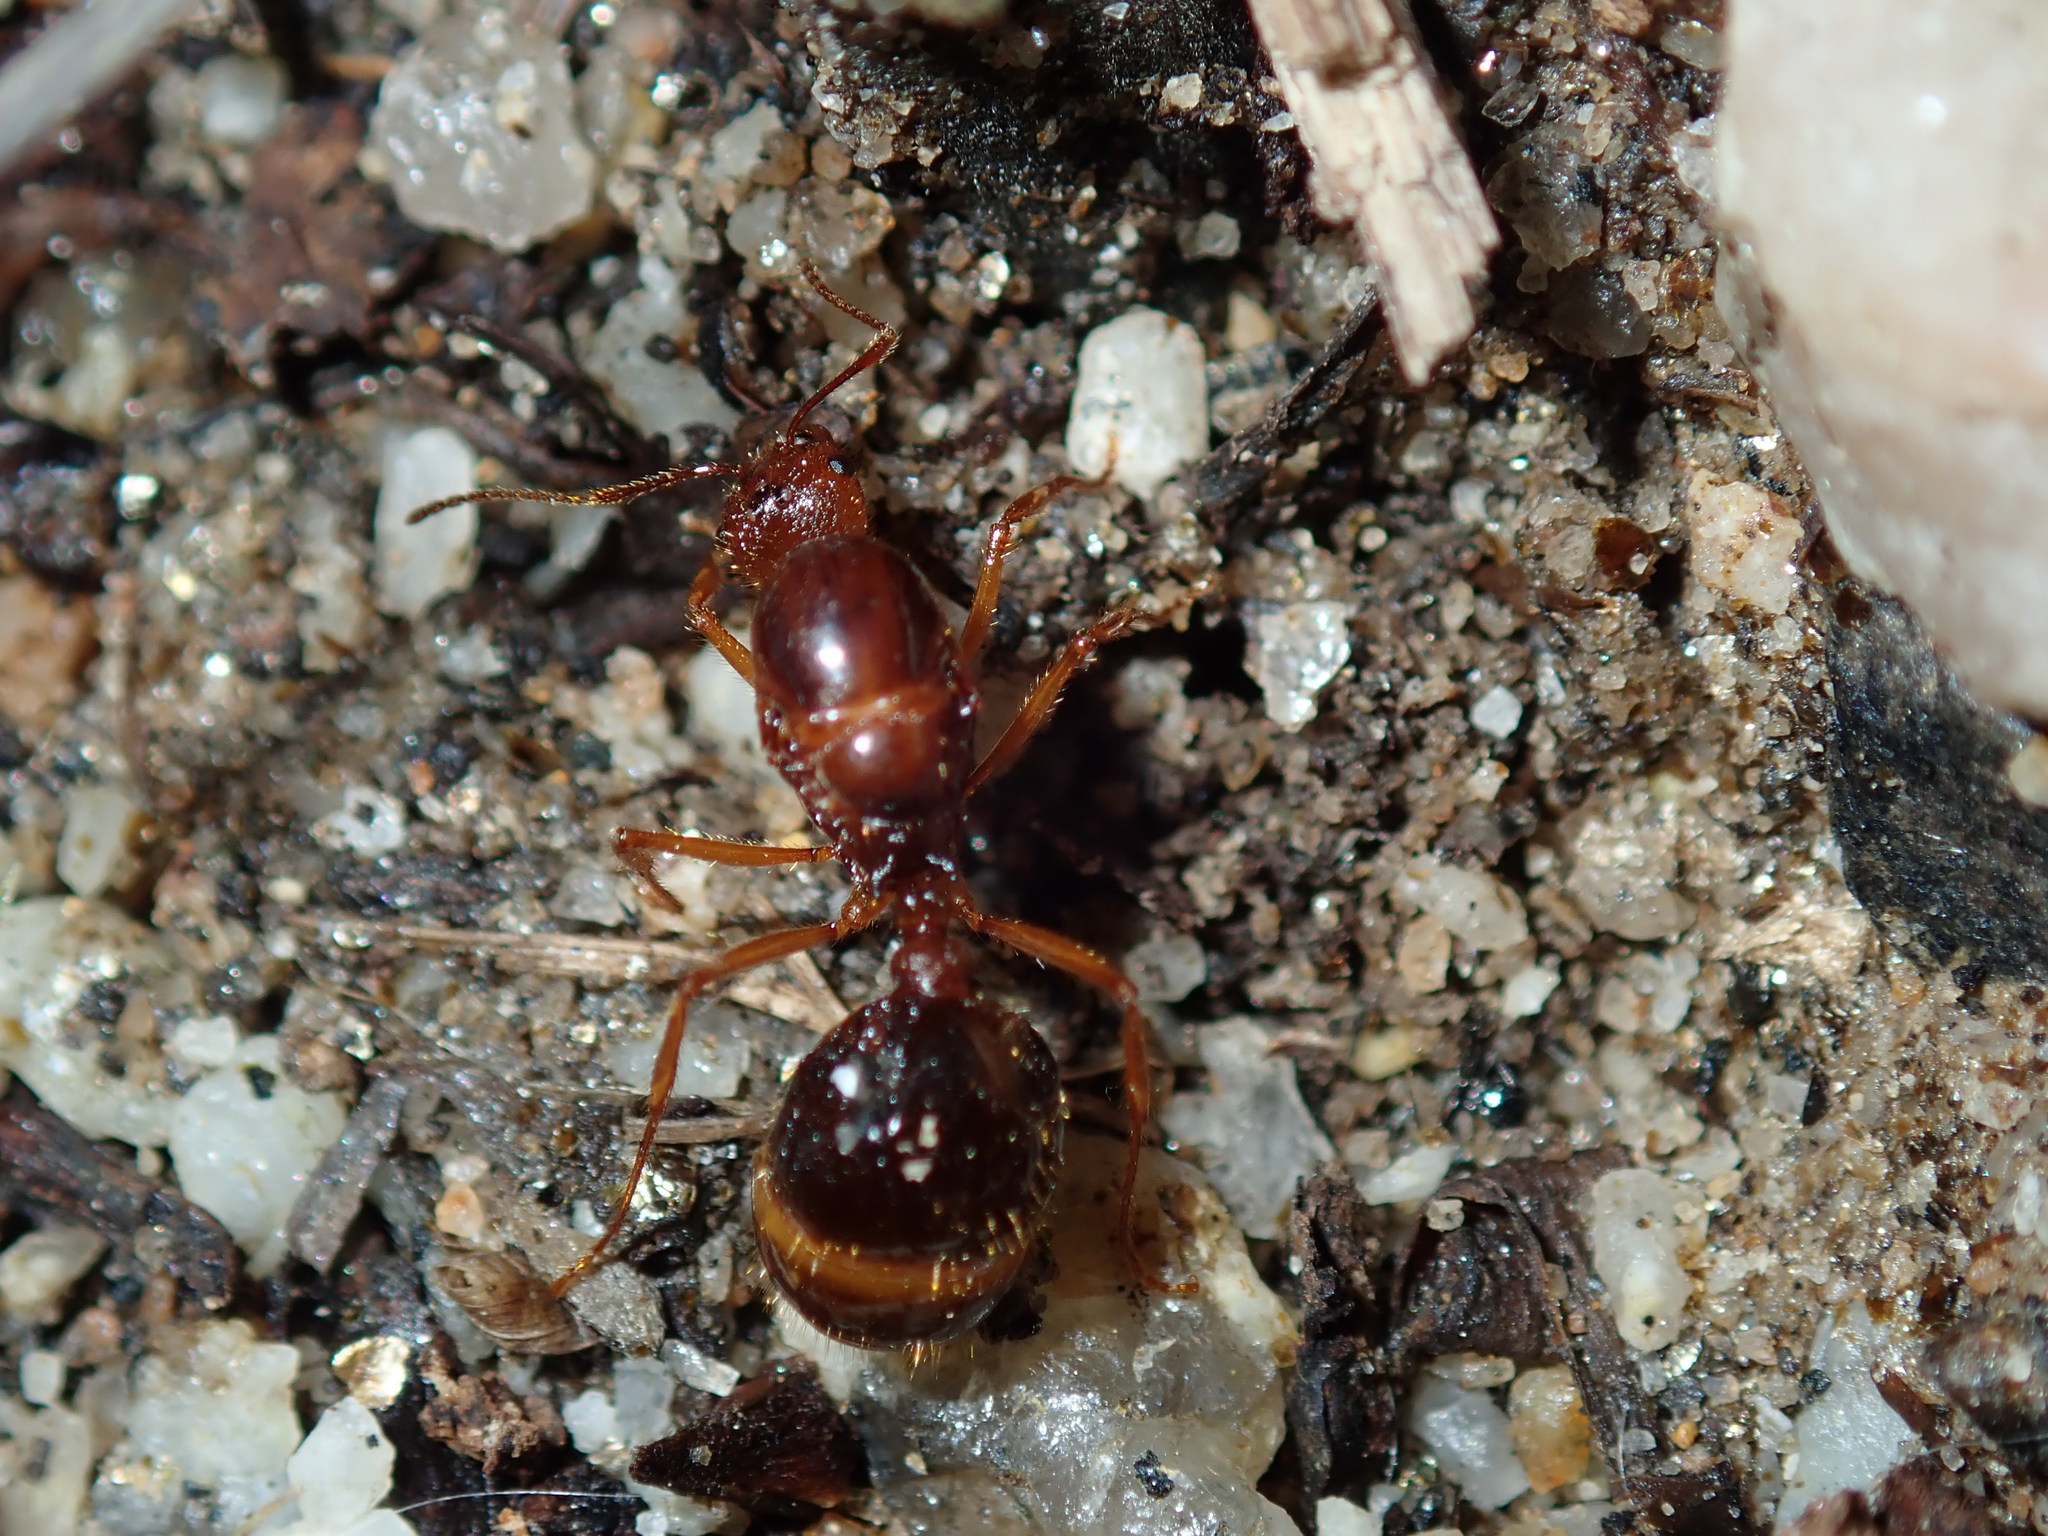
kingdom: Animalia
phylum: Arthropoda
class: Insecta
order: Hymenoptera
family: Formicidae
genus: Aphaenogaster
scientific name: Aphaenogaster longiceps
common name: Funnel ant
